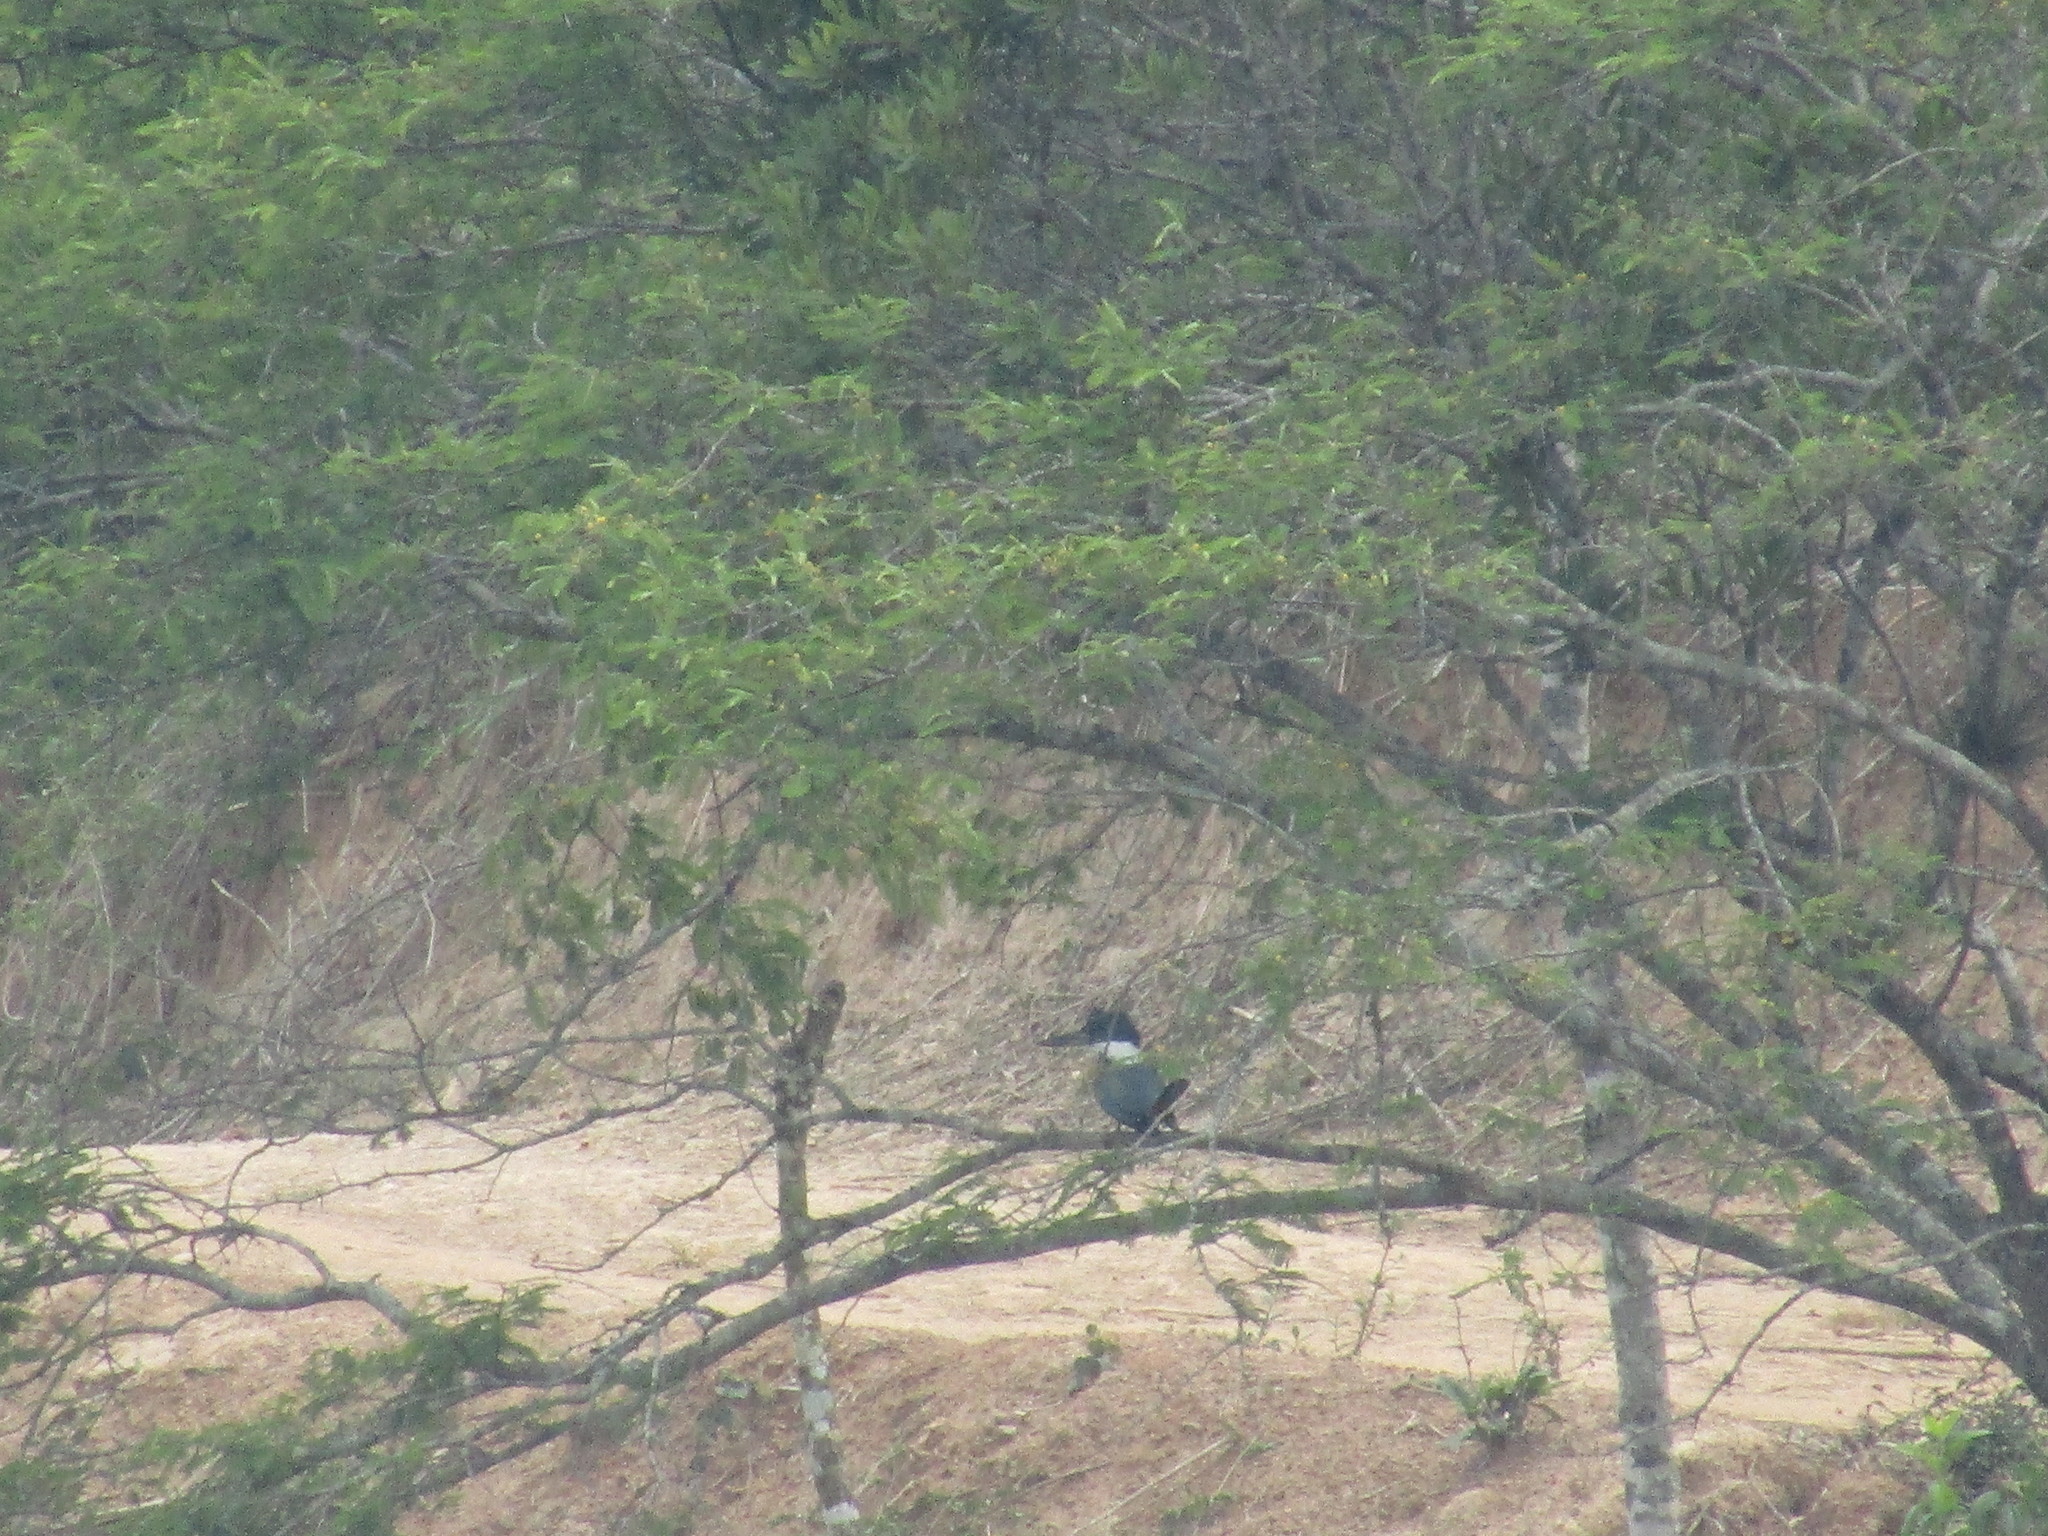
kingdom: Animalia
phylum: Chordata
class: Aves
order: Coraciiformes
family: Alcedinidae
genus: Megaceryle
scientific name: Megaceryle torquata
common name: Ringed kingfisher
